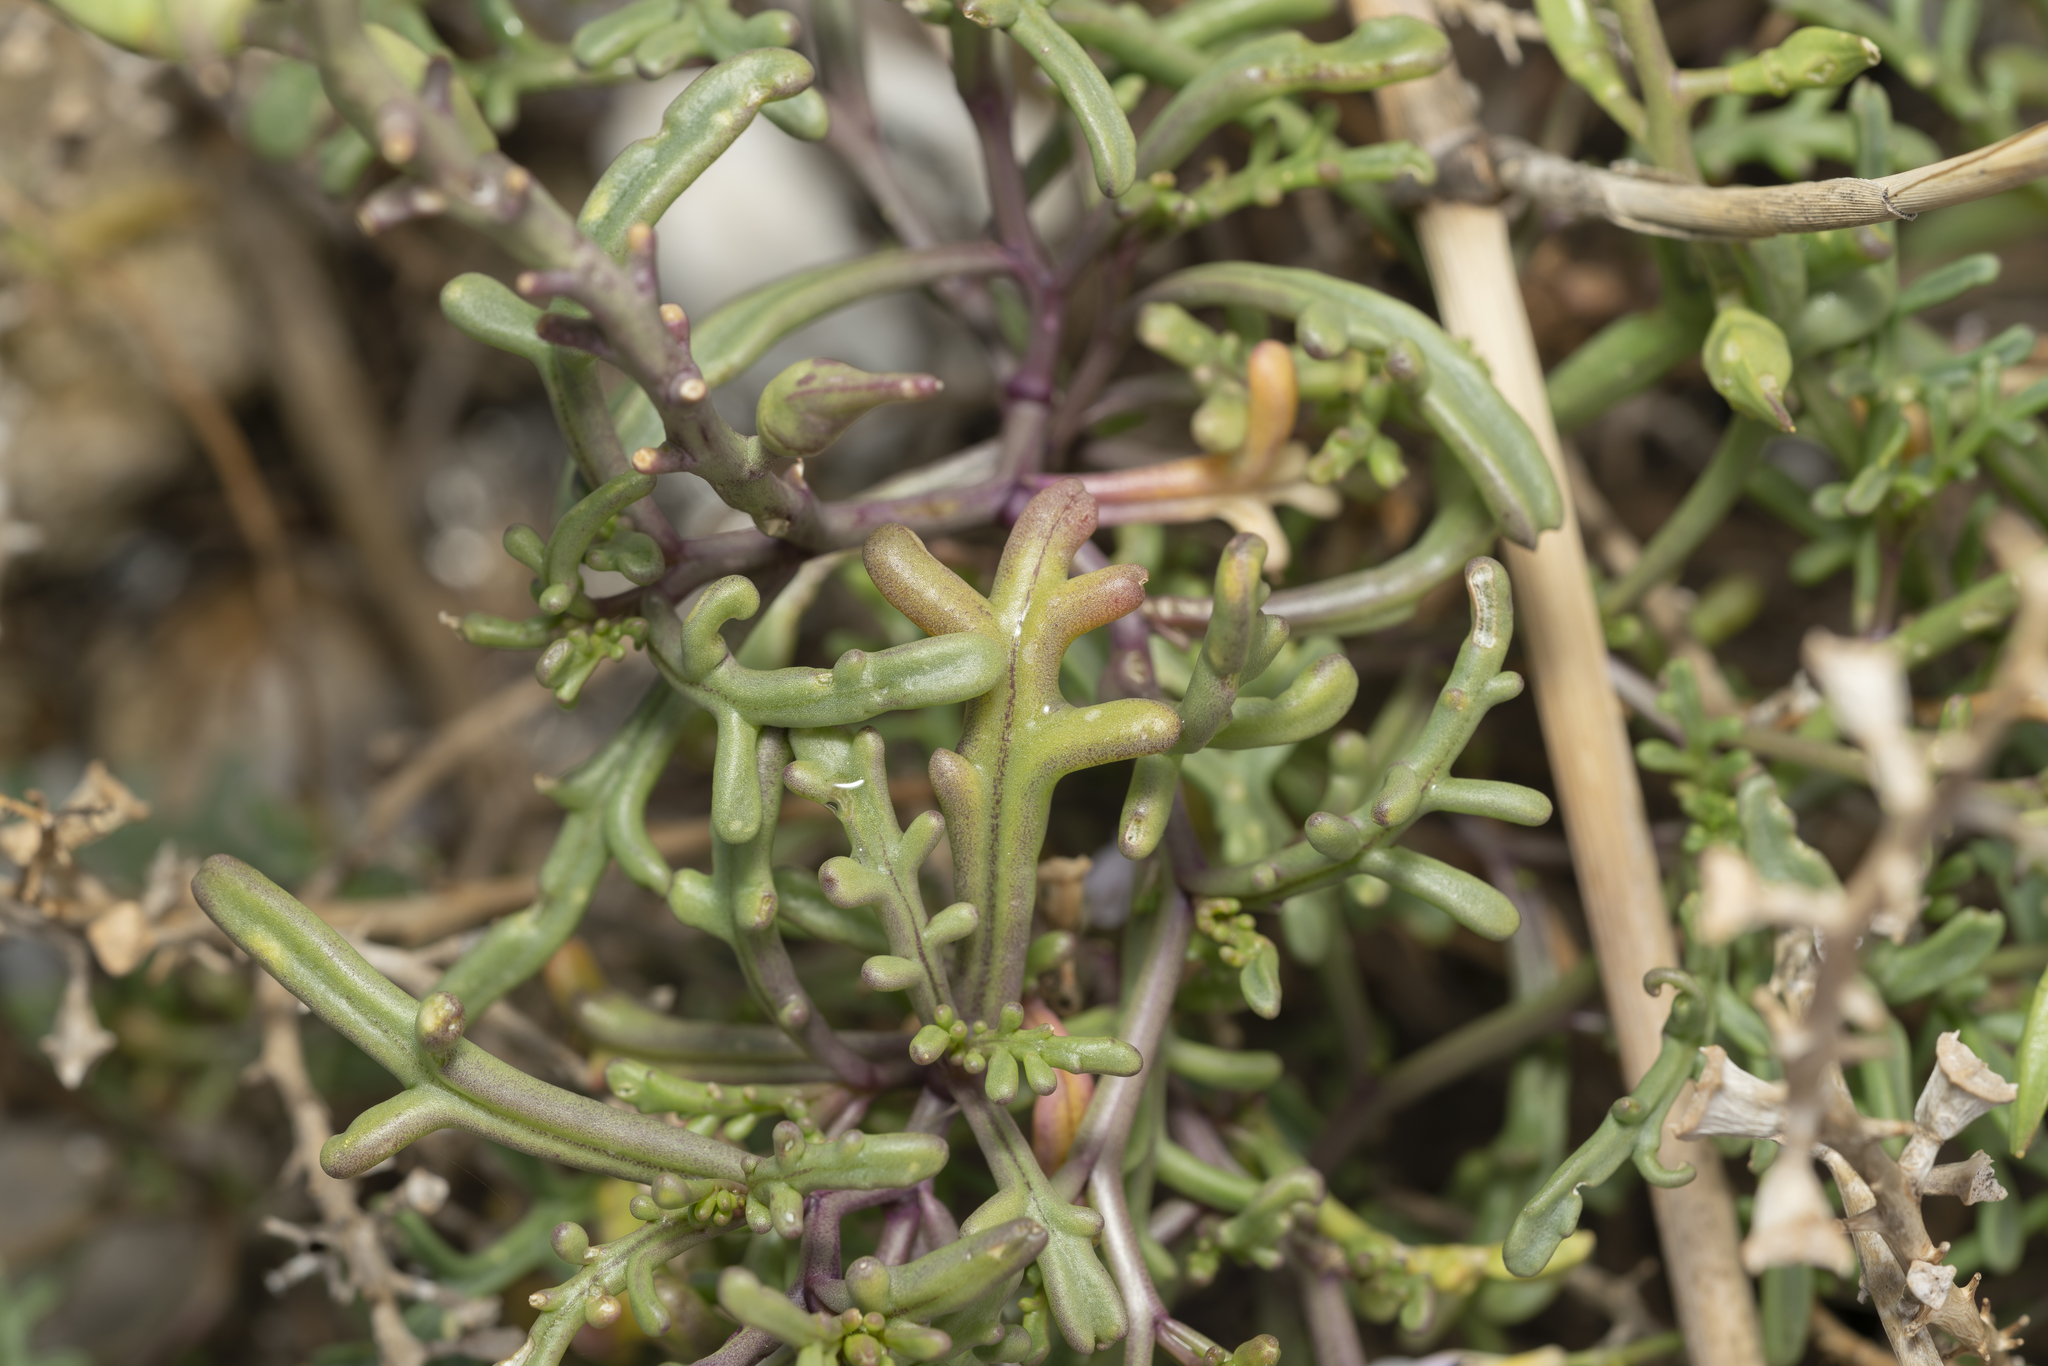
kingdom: Plantae
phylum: Tracheophyta
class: Magnoliopsida
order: Brassicales
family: Brassicaceae
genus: Cakile
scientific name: Cakile maritima
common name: Sea rocket
